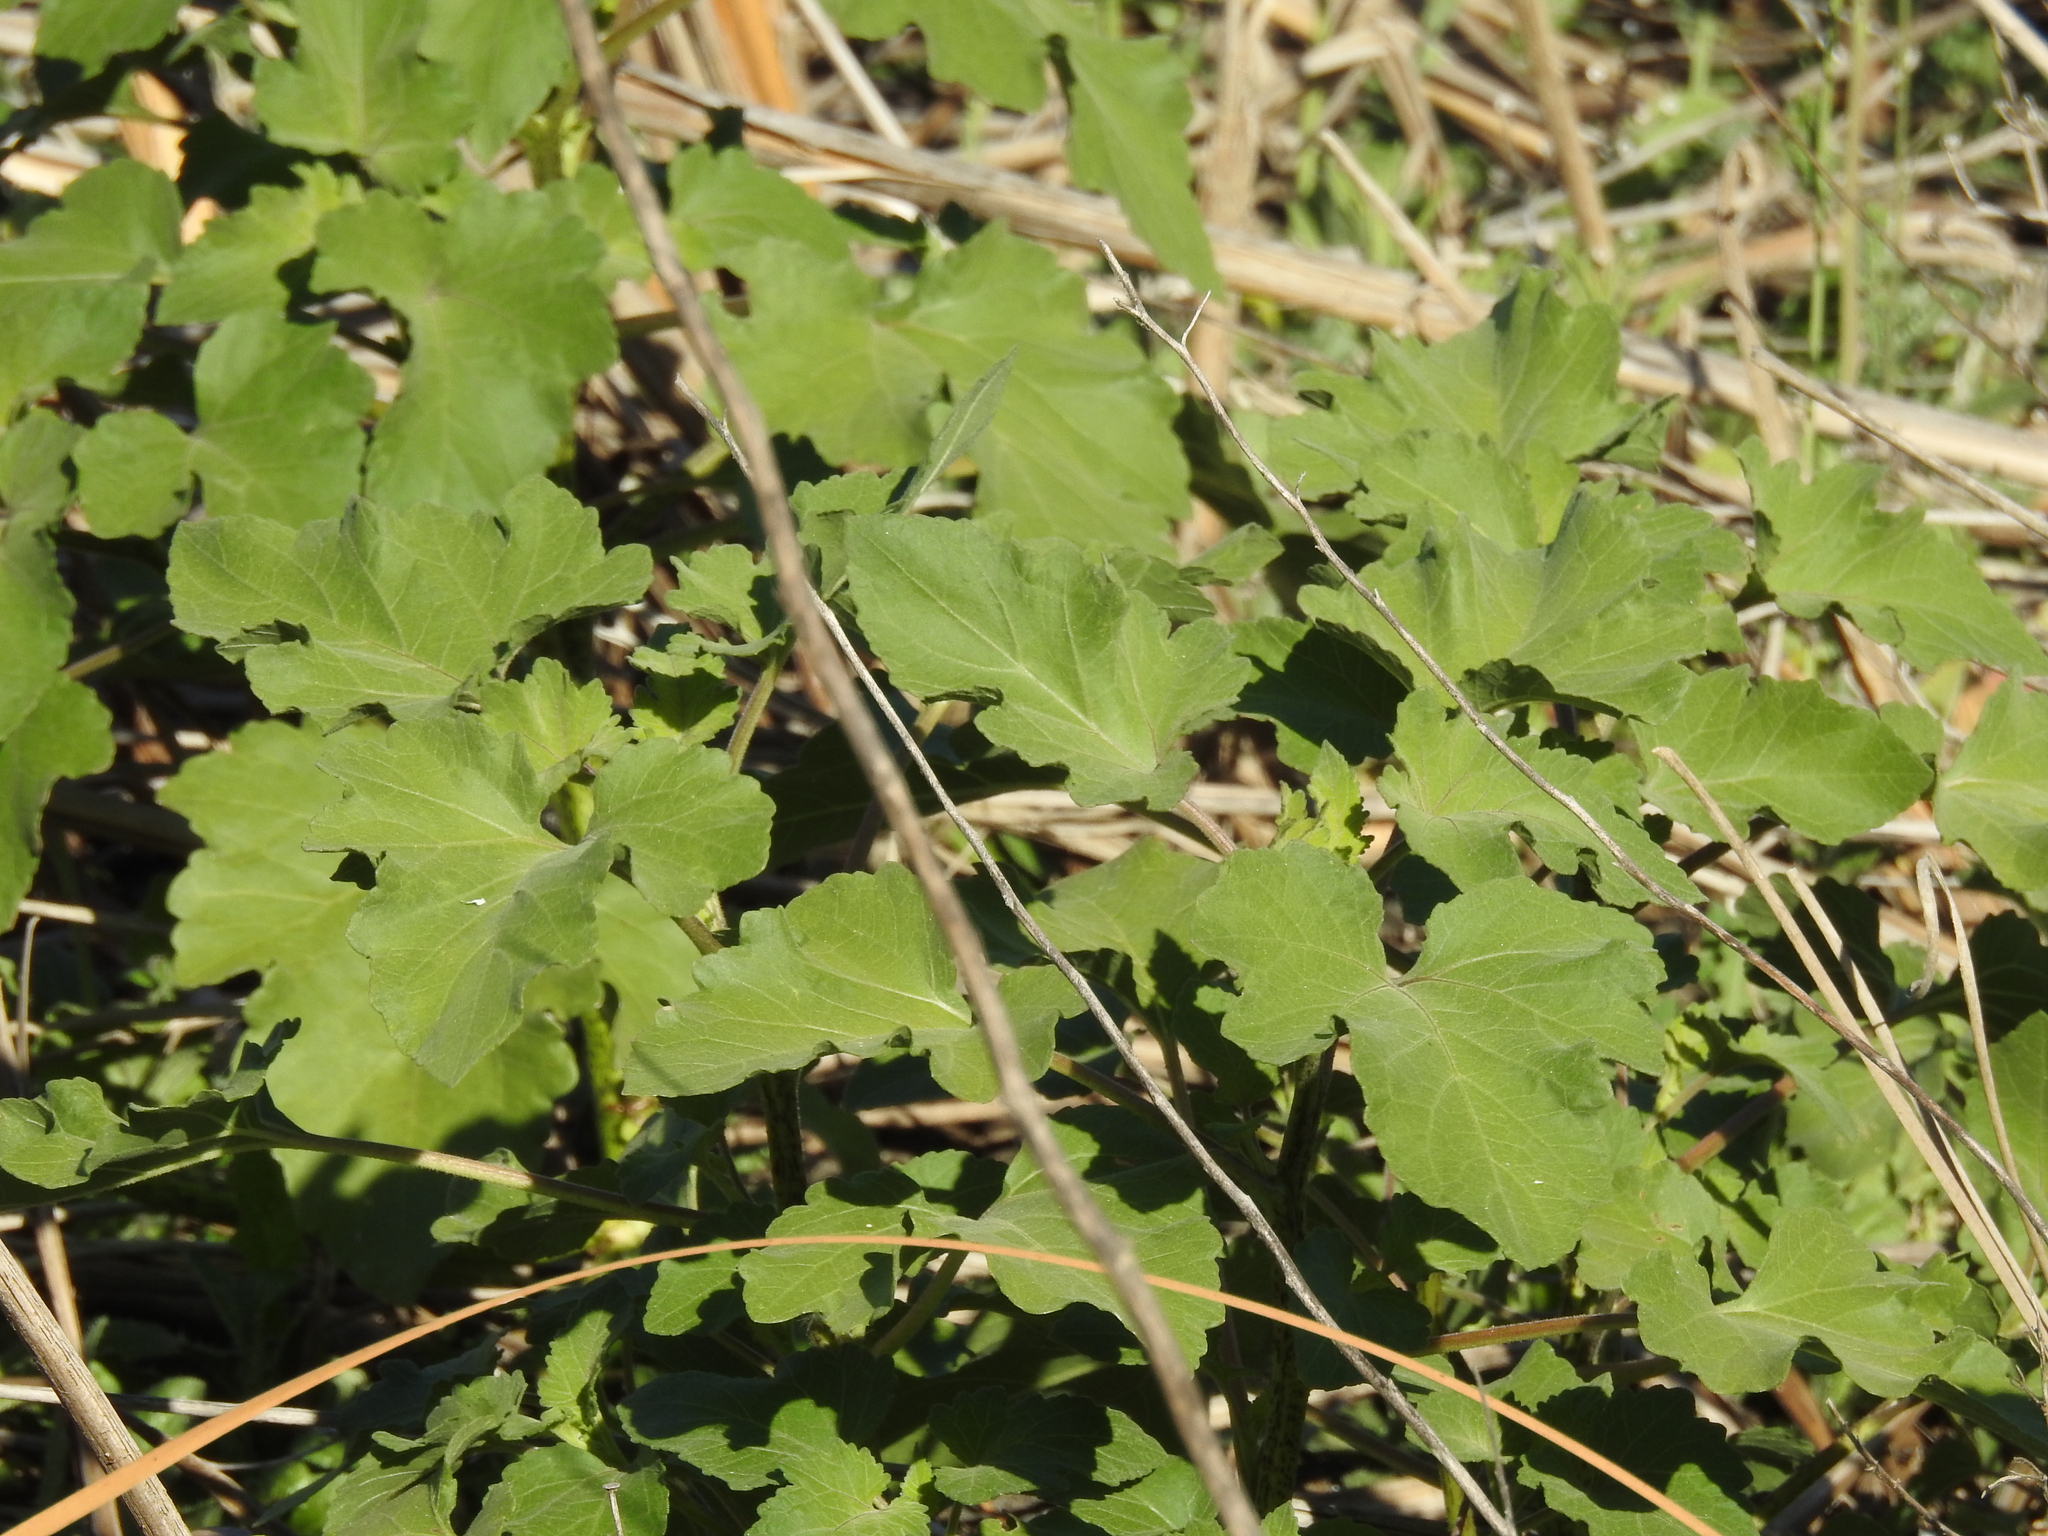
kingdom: Plantae
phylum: Tracheophyta
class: Magnoliopsida
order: Asterales
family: Asteraceae
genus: Xanthium
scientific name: Xanthium strumarium
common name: Rough cocklebur
